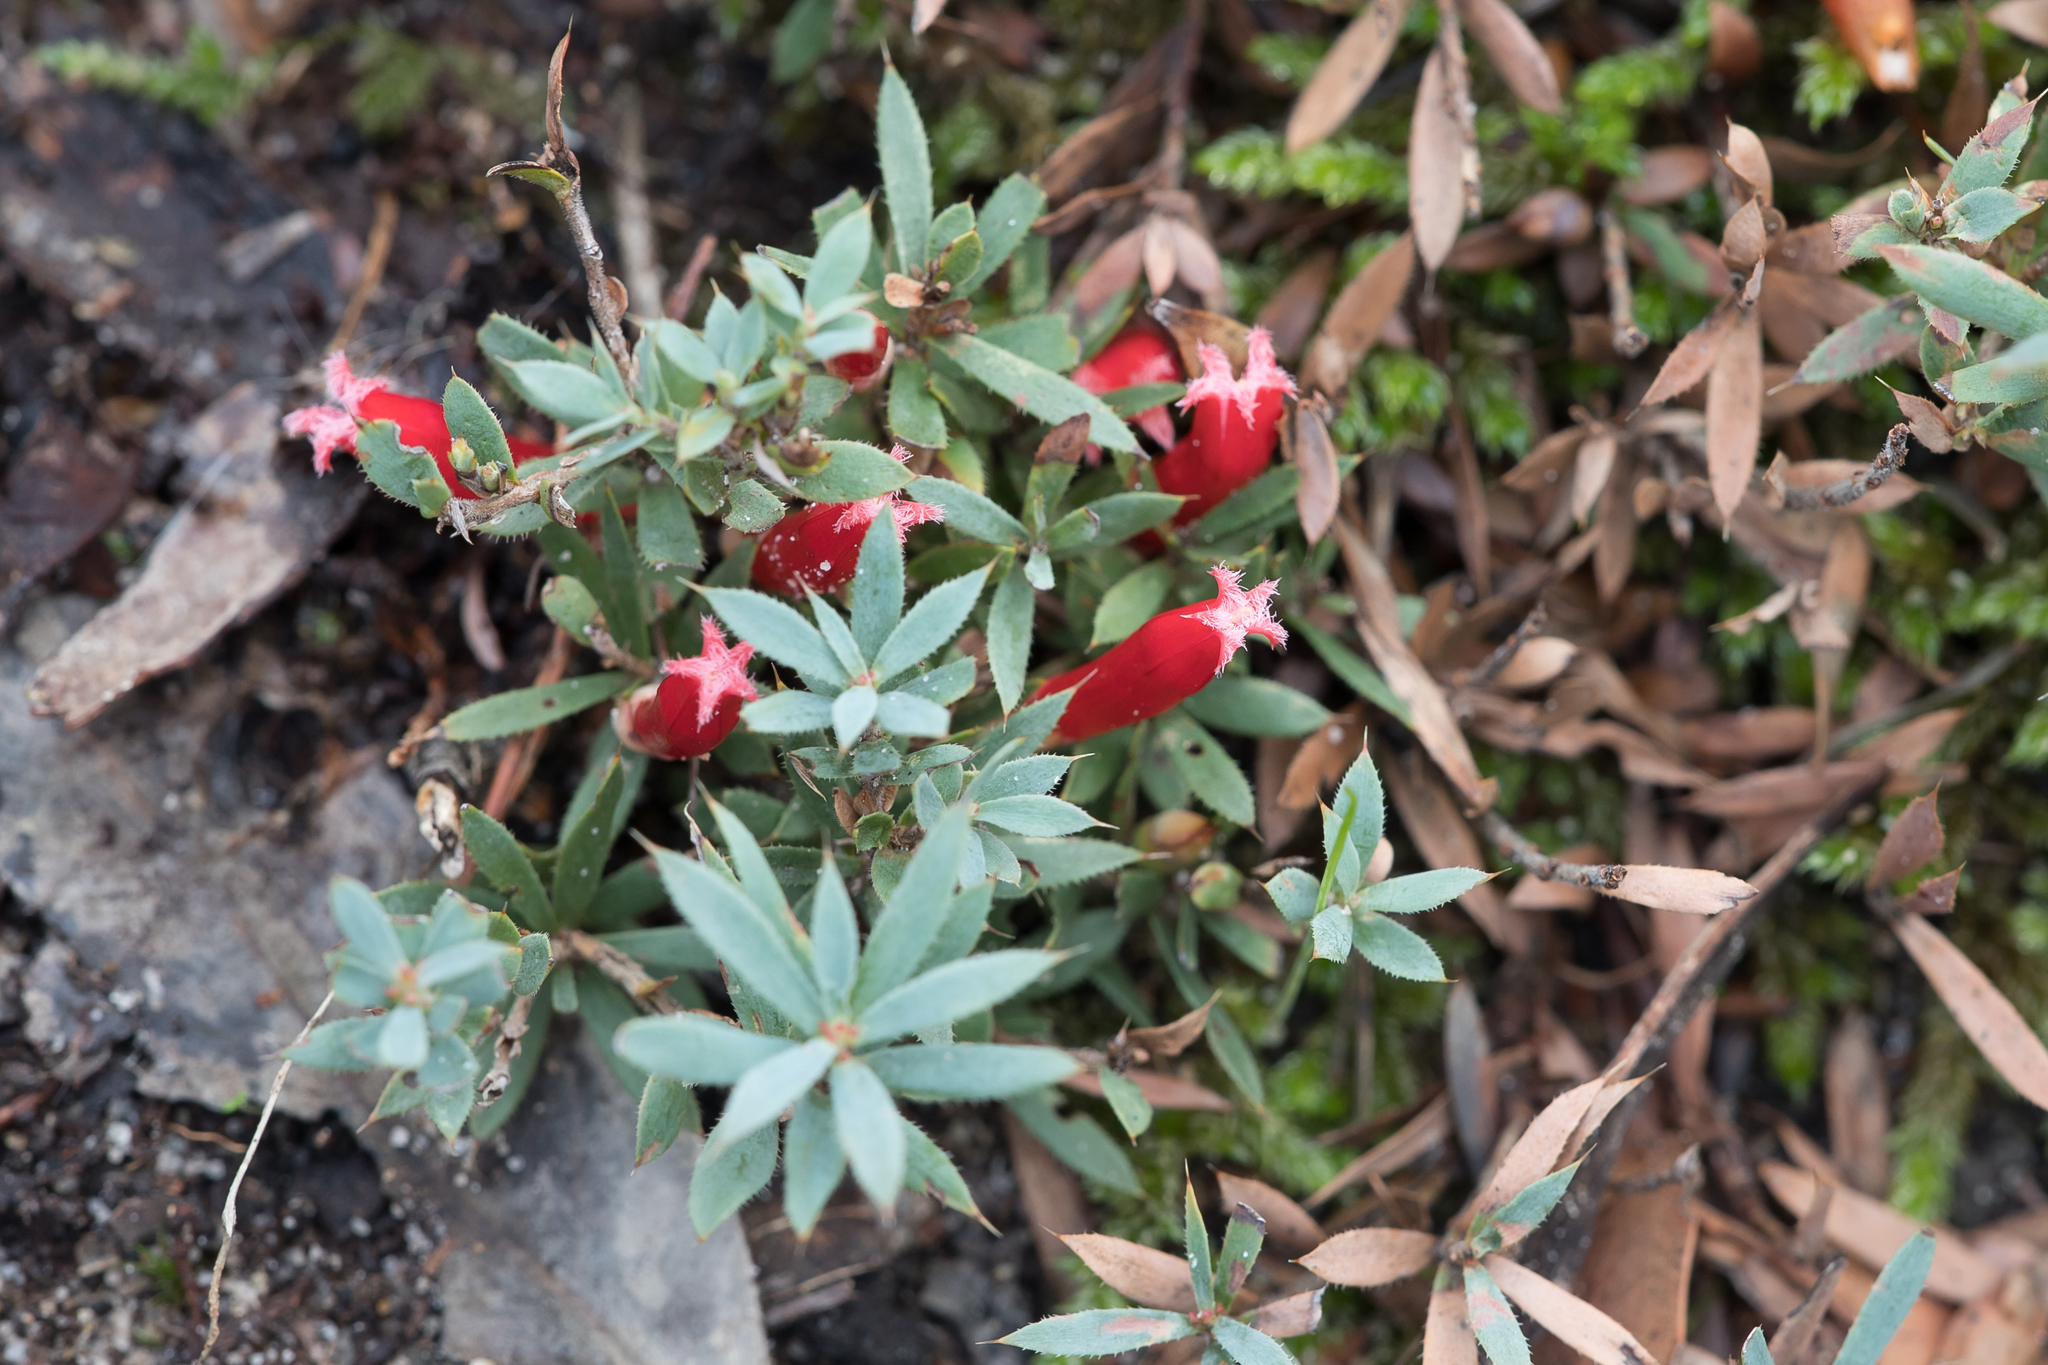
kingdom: Plantae
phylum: Tracheophyta
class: Magnoliopsida
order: Ericales
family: Ericaceae
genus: Styphelia
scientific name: Styphelia humifusa
